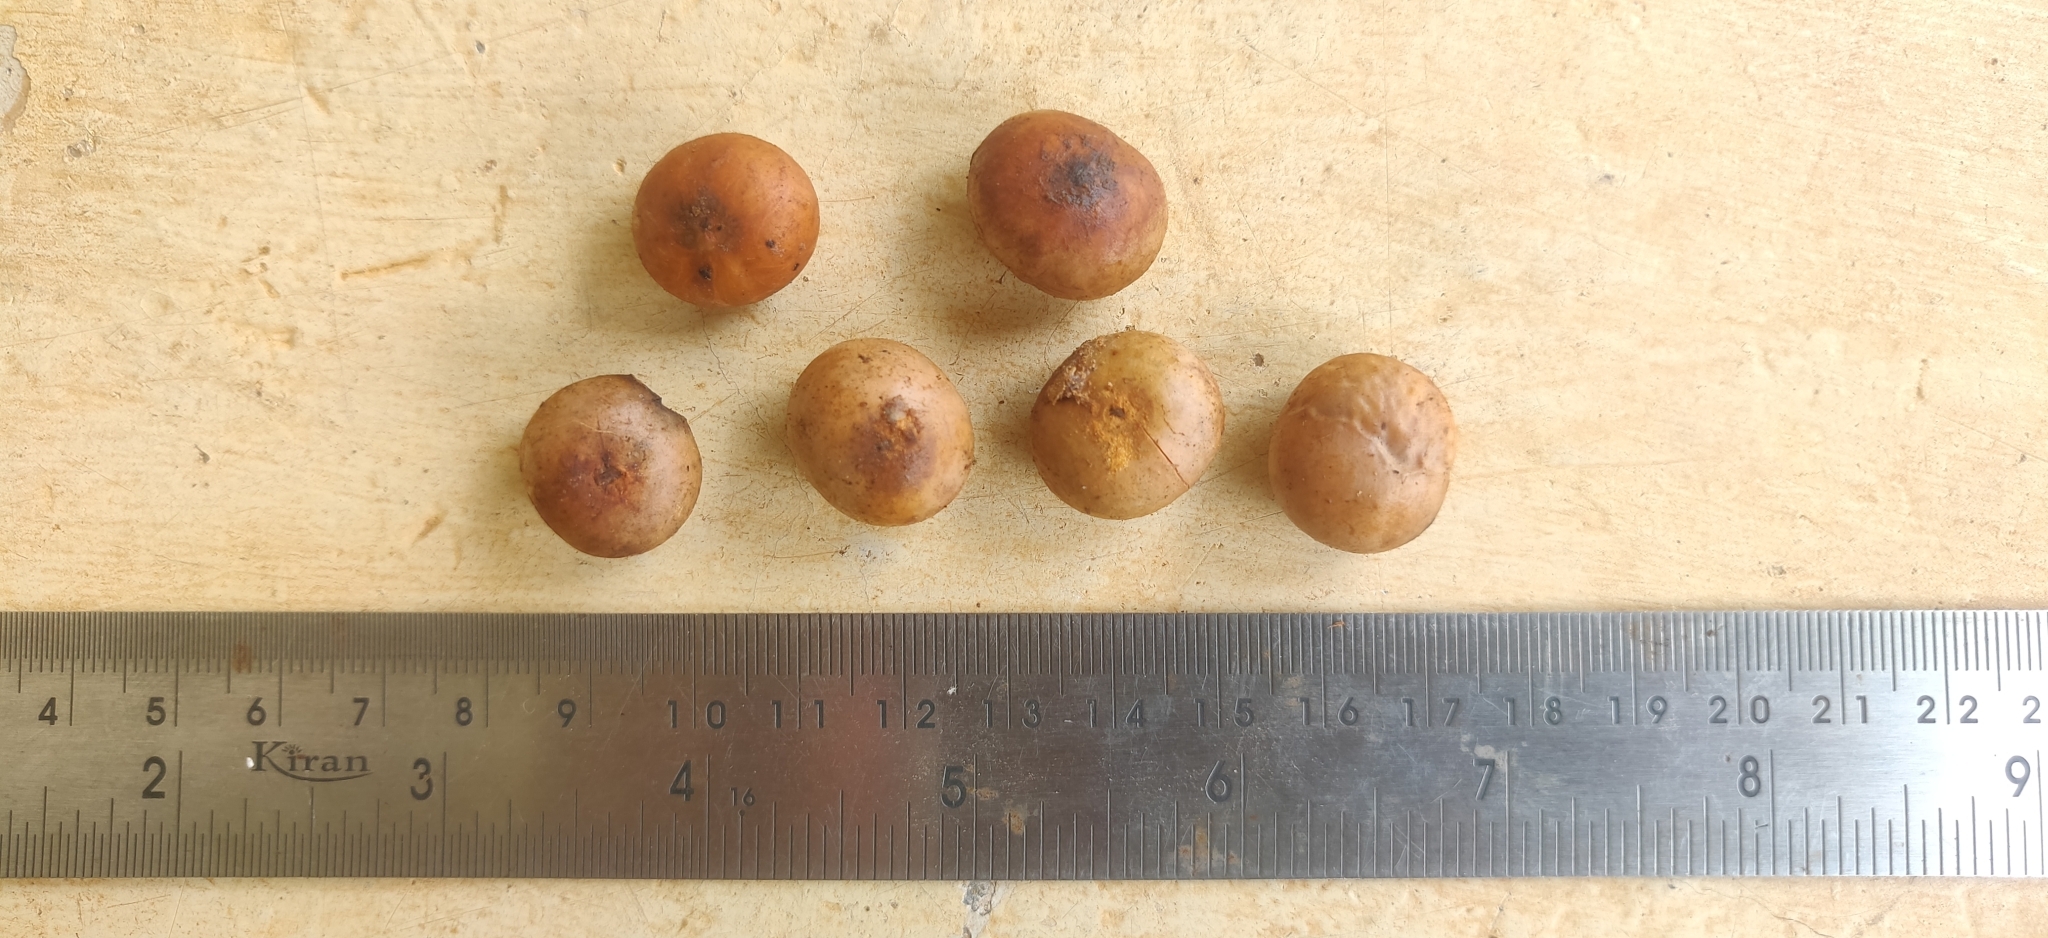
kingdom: Plantae
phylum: Tracheophyta
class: Magnoliopsida
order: Laurales
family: Lauraceae
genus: Litsea
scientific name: Litsea nigrescens
